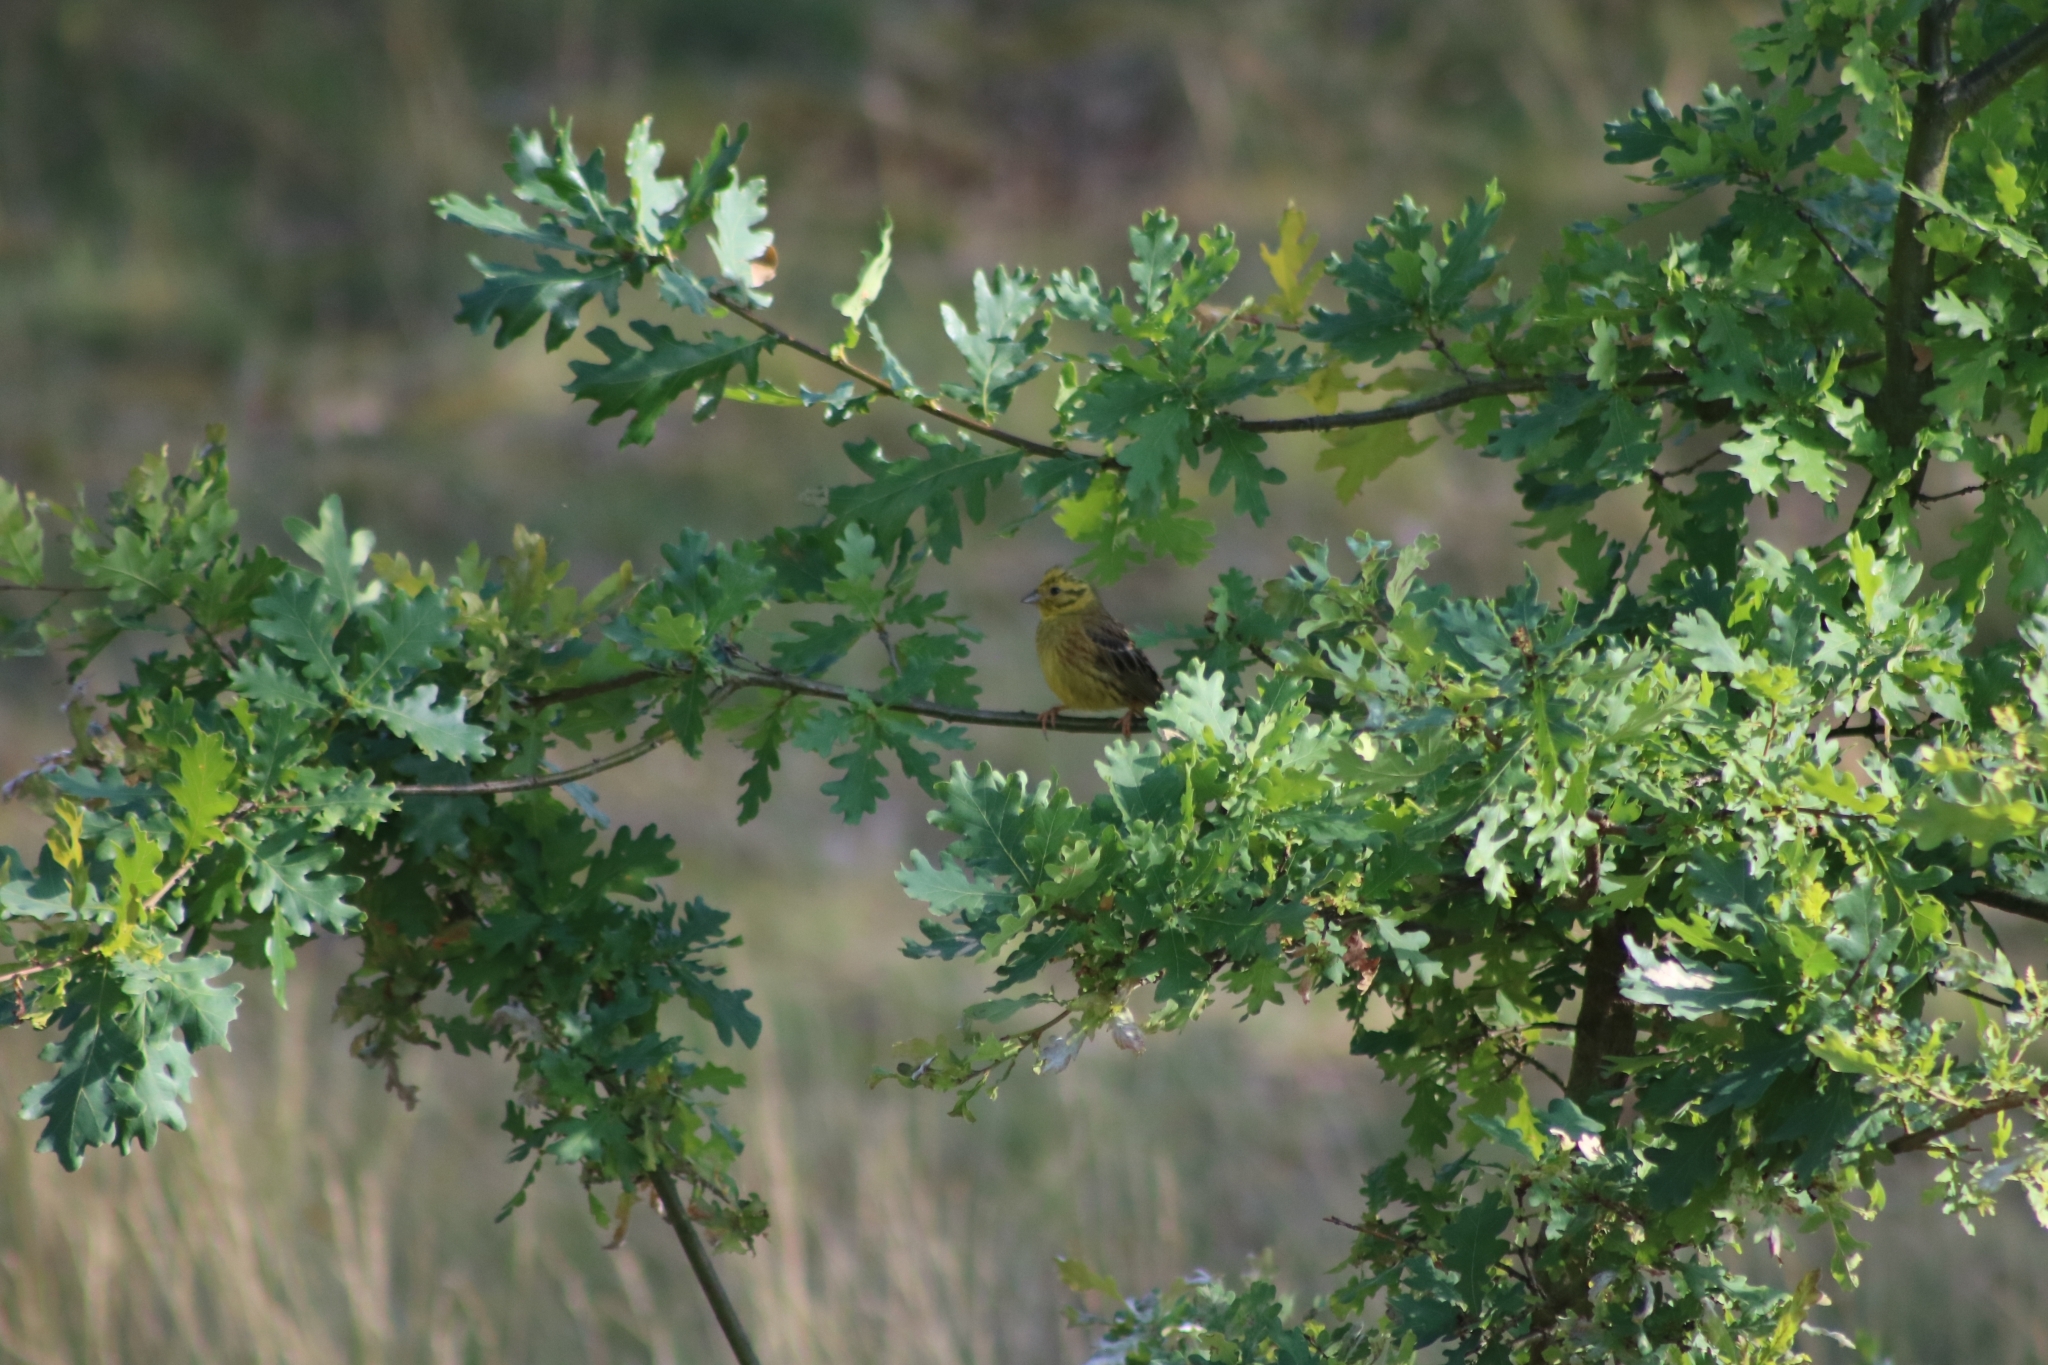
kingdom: Animalia
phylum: Chordata
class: Aves
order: Passeriformes
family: Emberizidae
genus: Emberiza
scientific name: Emberiza citrinella
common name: Yellowhammer
